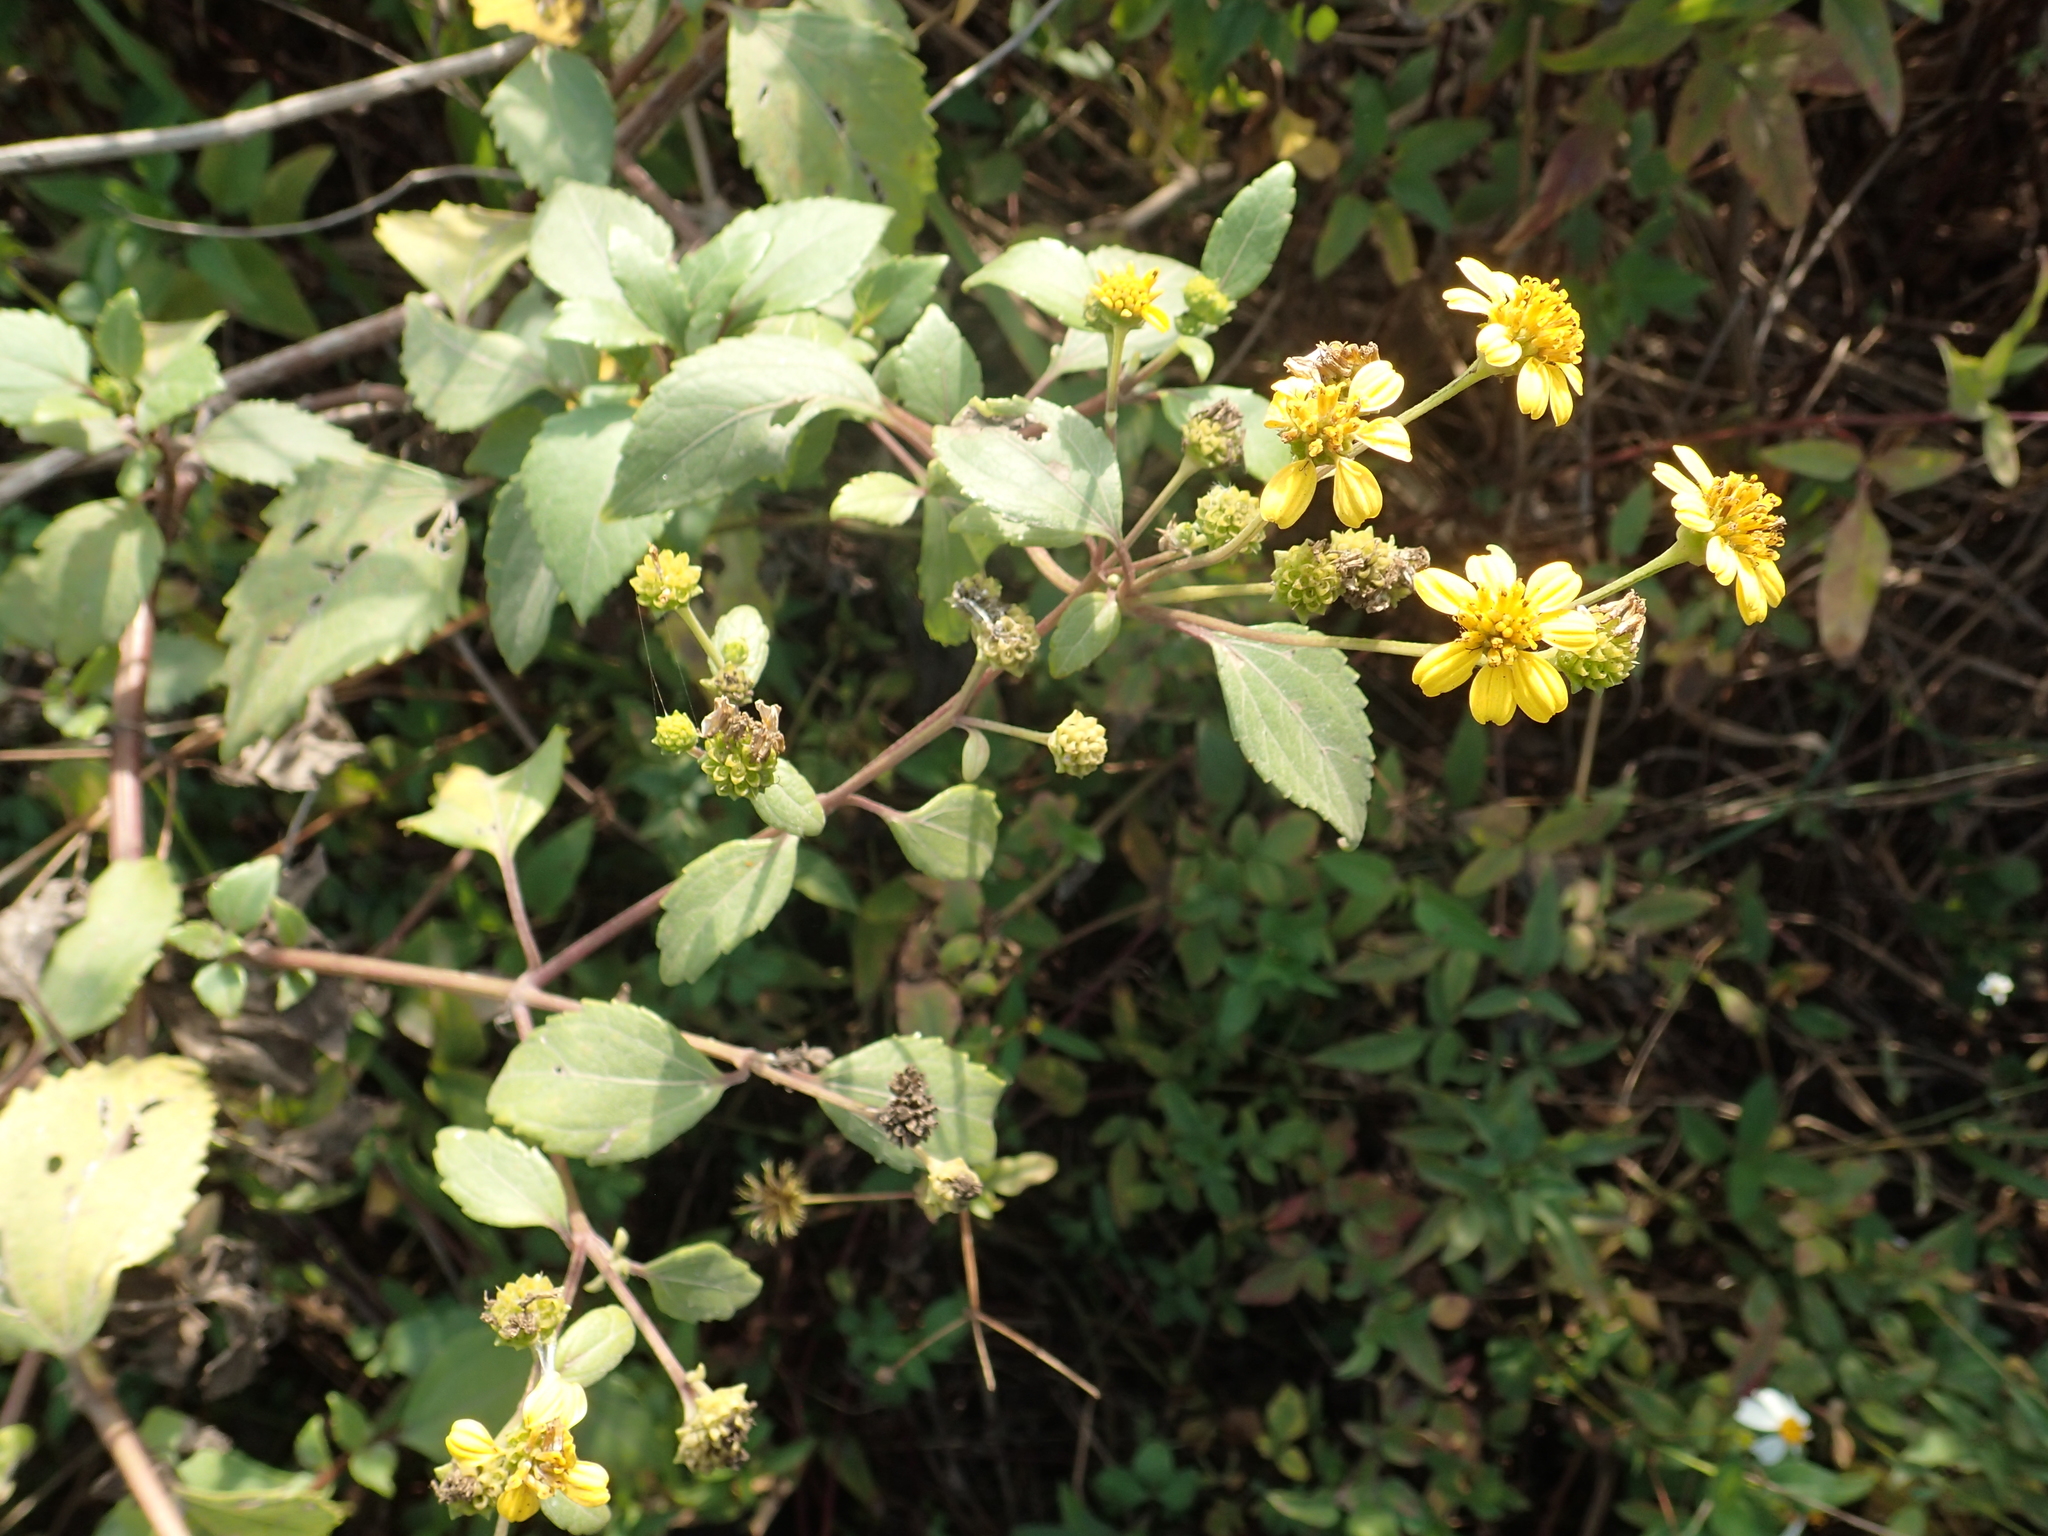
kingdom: Plantae
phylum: Tracheophyta
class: Magnoliopsida
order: Asterales
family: Asteraceae
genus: Wollastonia
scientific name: Wollastonia biflora
